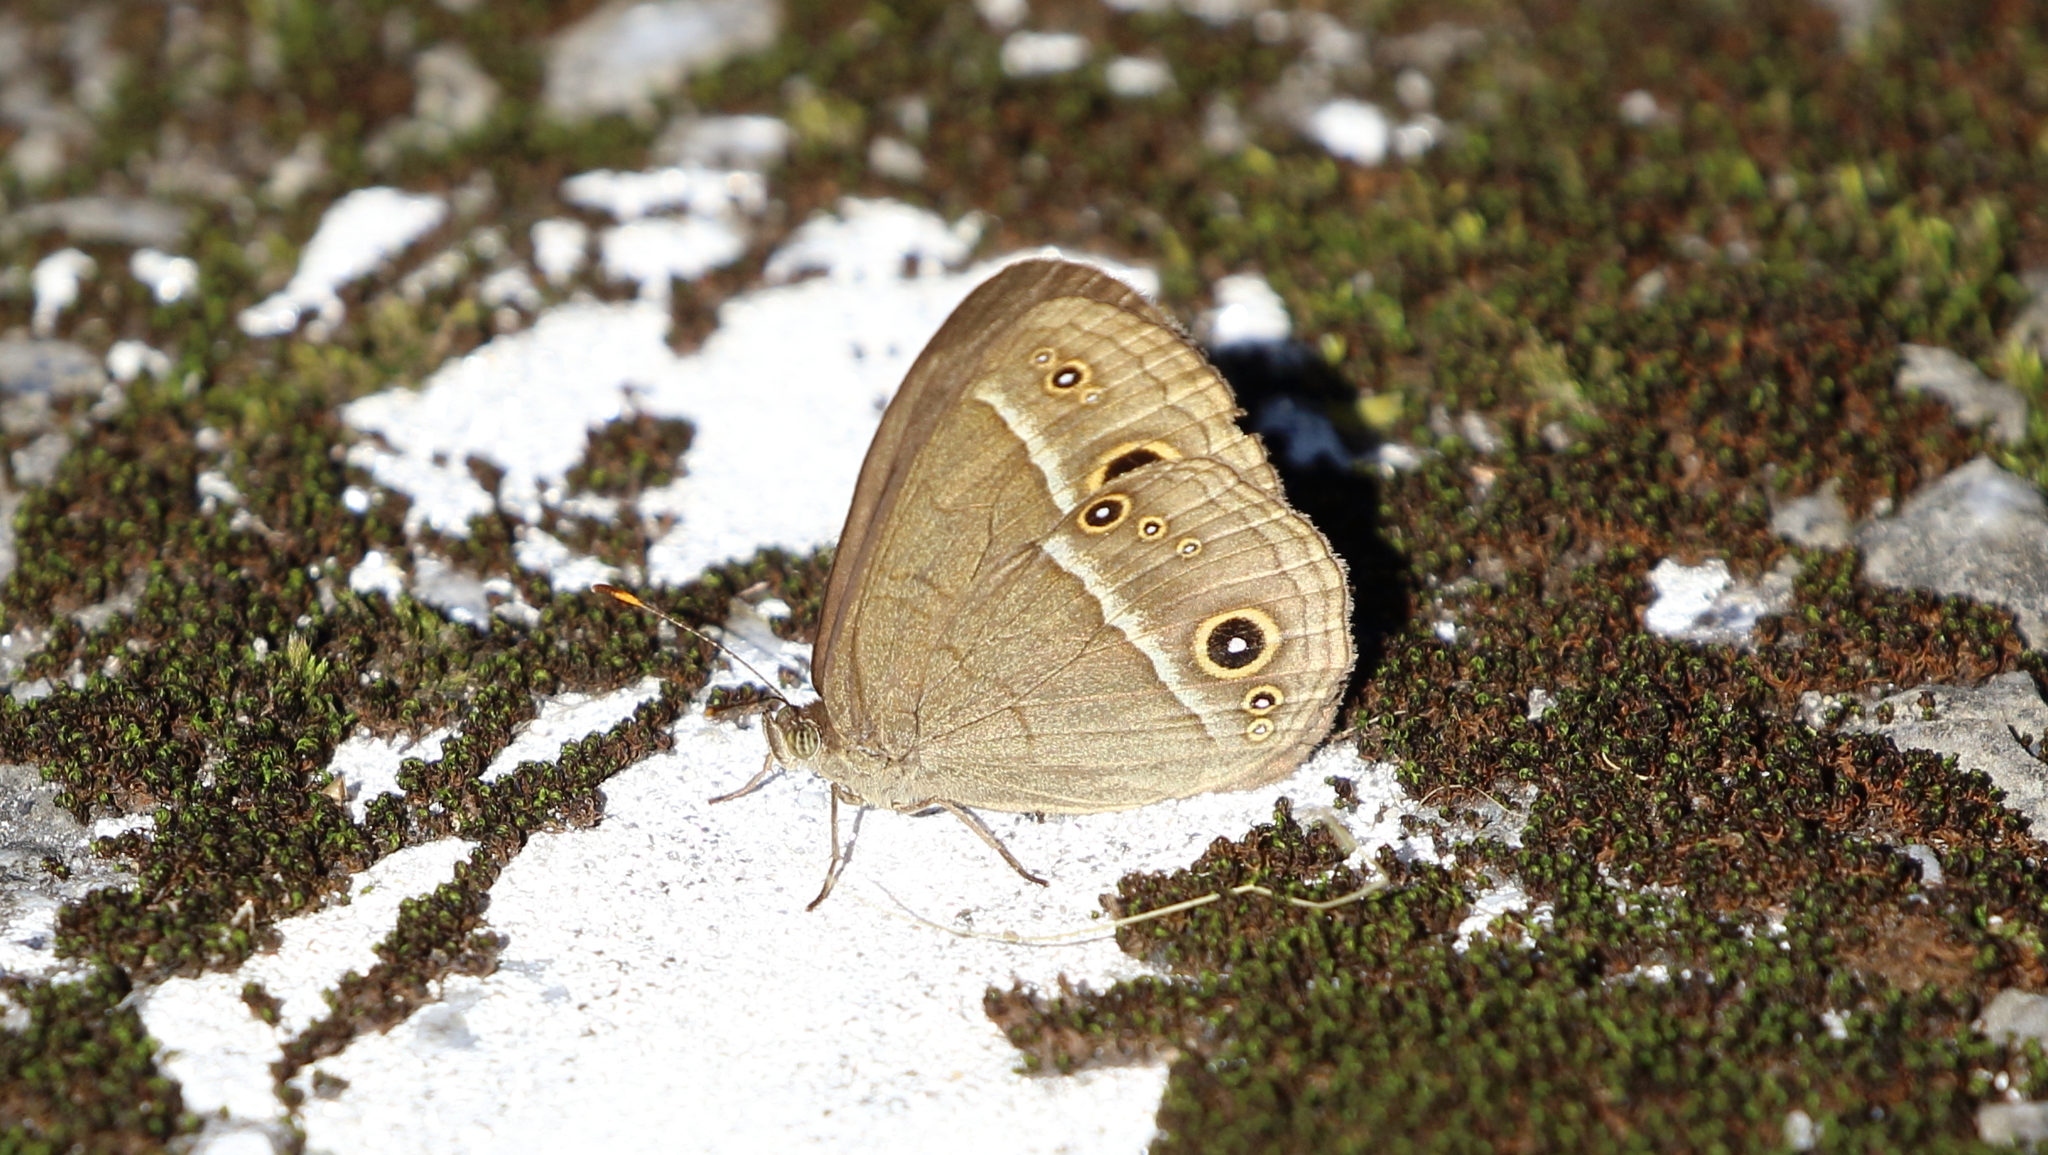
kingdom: Animalia
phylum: Arthropoda
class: Insecta
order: Lepidoptera
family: Nymphalidae
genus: Mycalesis
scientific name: Mycalesis gotama
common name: Chinese bushbrown
